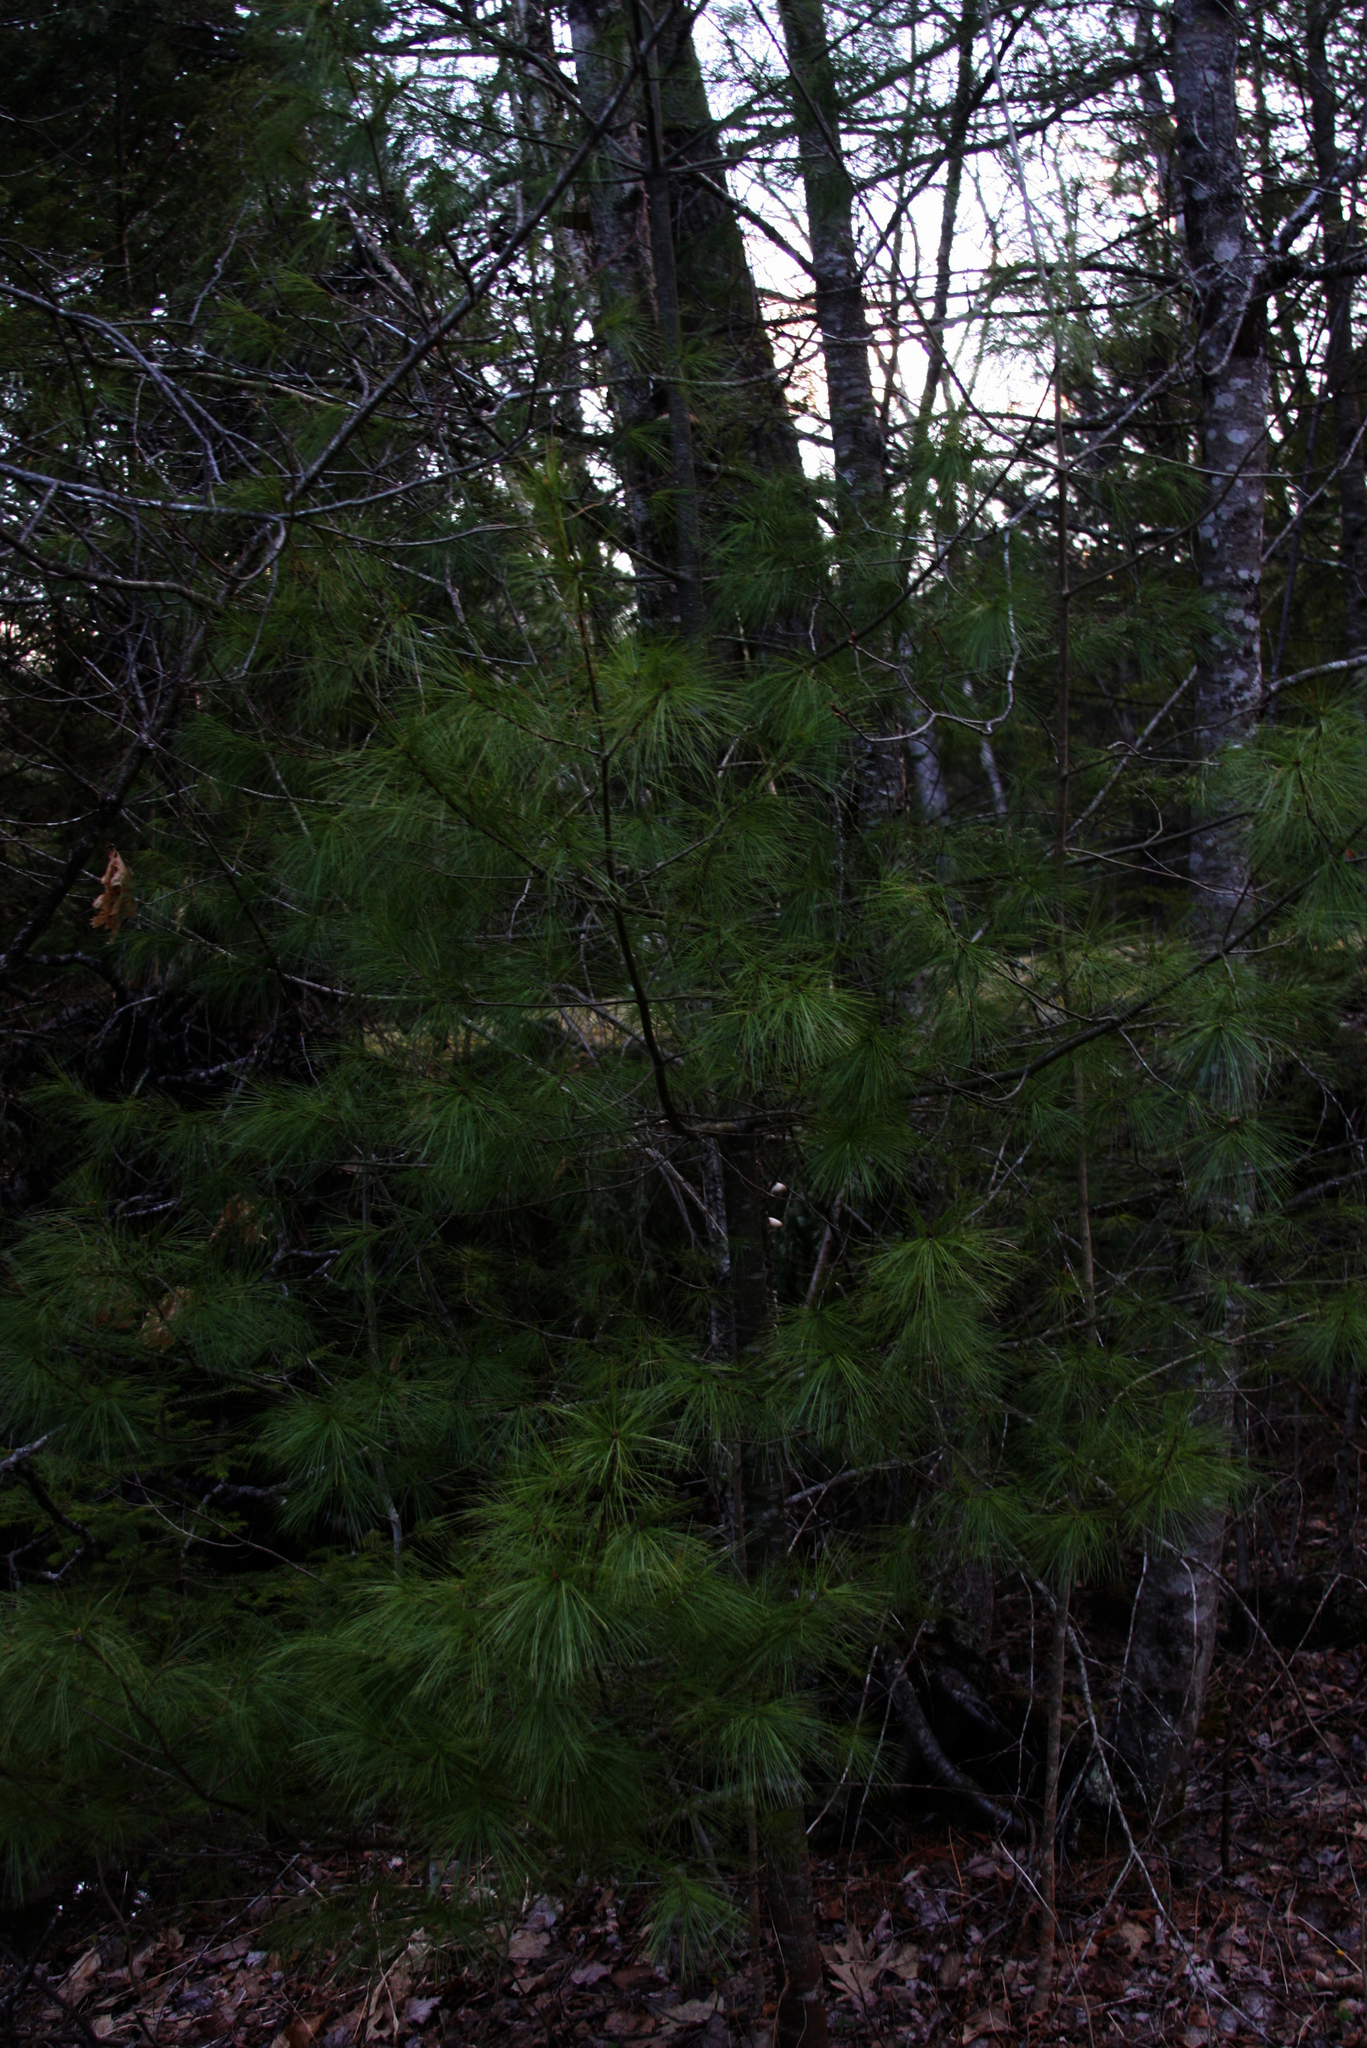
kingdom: Plantae
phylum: Tracheophyta
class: Pinopsida
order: Pinales
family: Pinaceae
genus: Pinus
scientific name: Pinus strobus
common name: Weymouth pine
